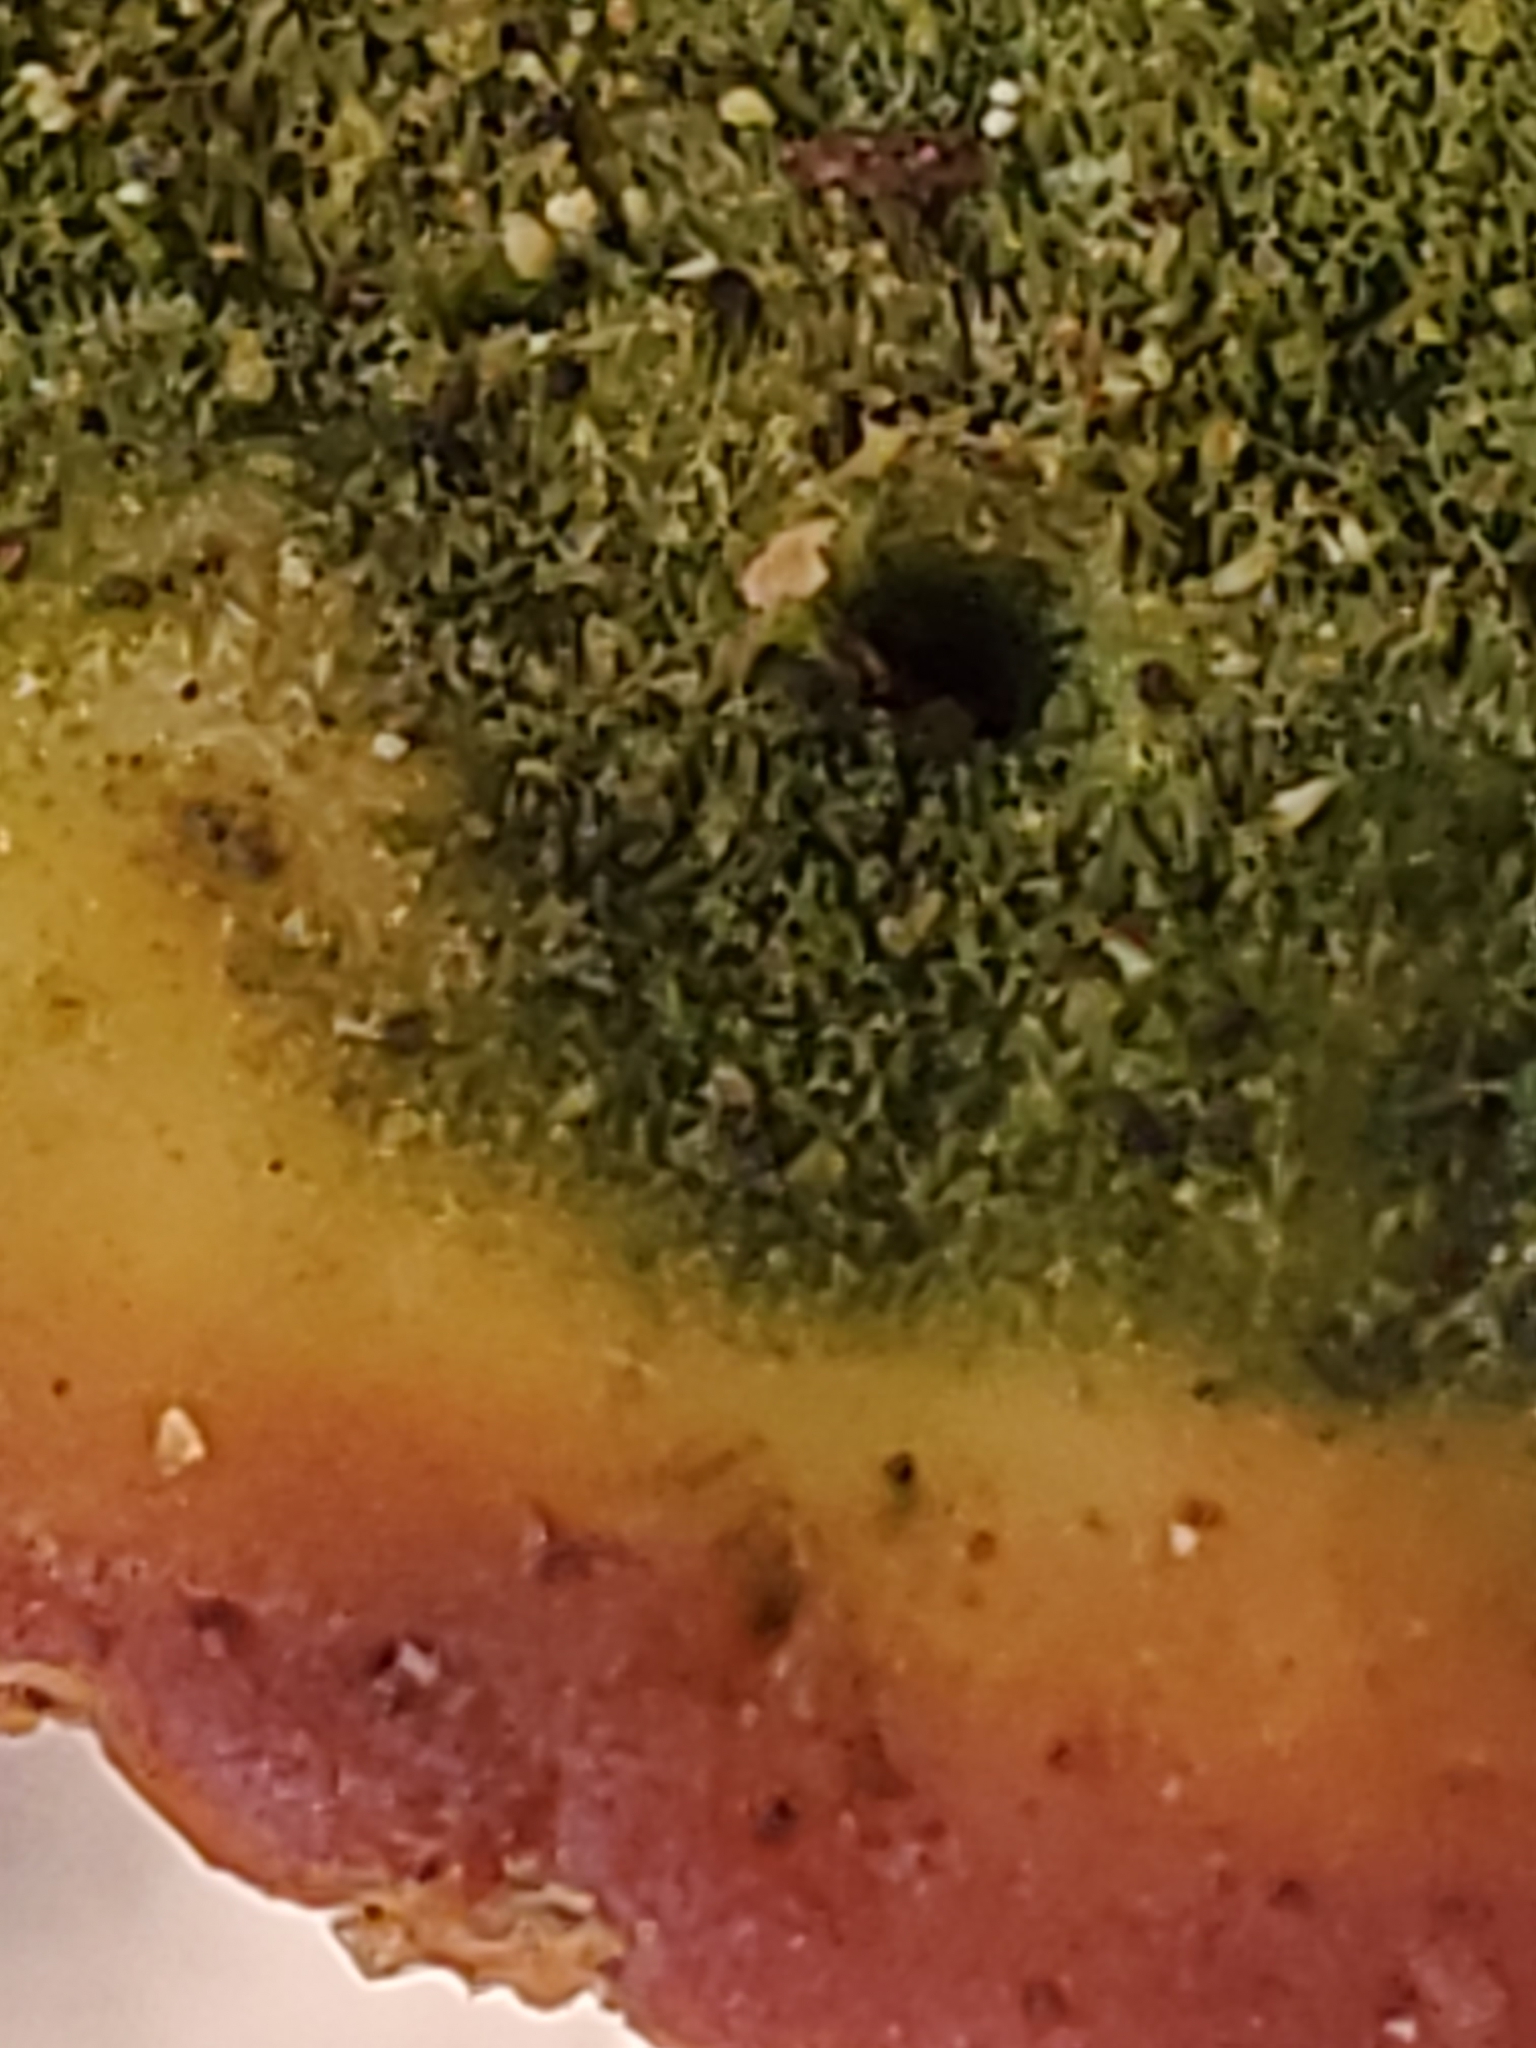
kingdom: Fungi
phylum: Basidiomycota
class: Agaricomycetes
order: Polyporales
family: Polyporaceae
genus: Trametes
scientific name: Trametes gibbosa
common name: Lumpy bracket
